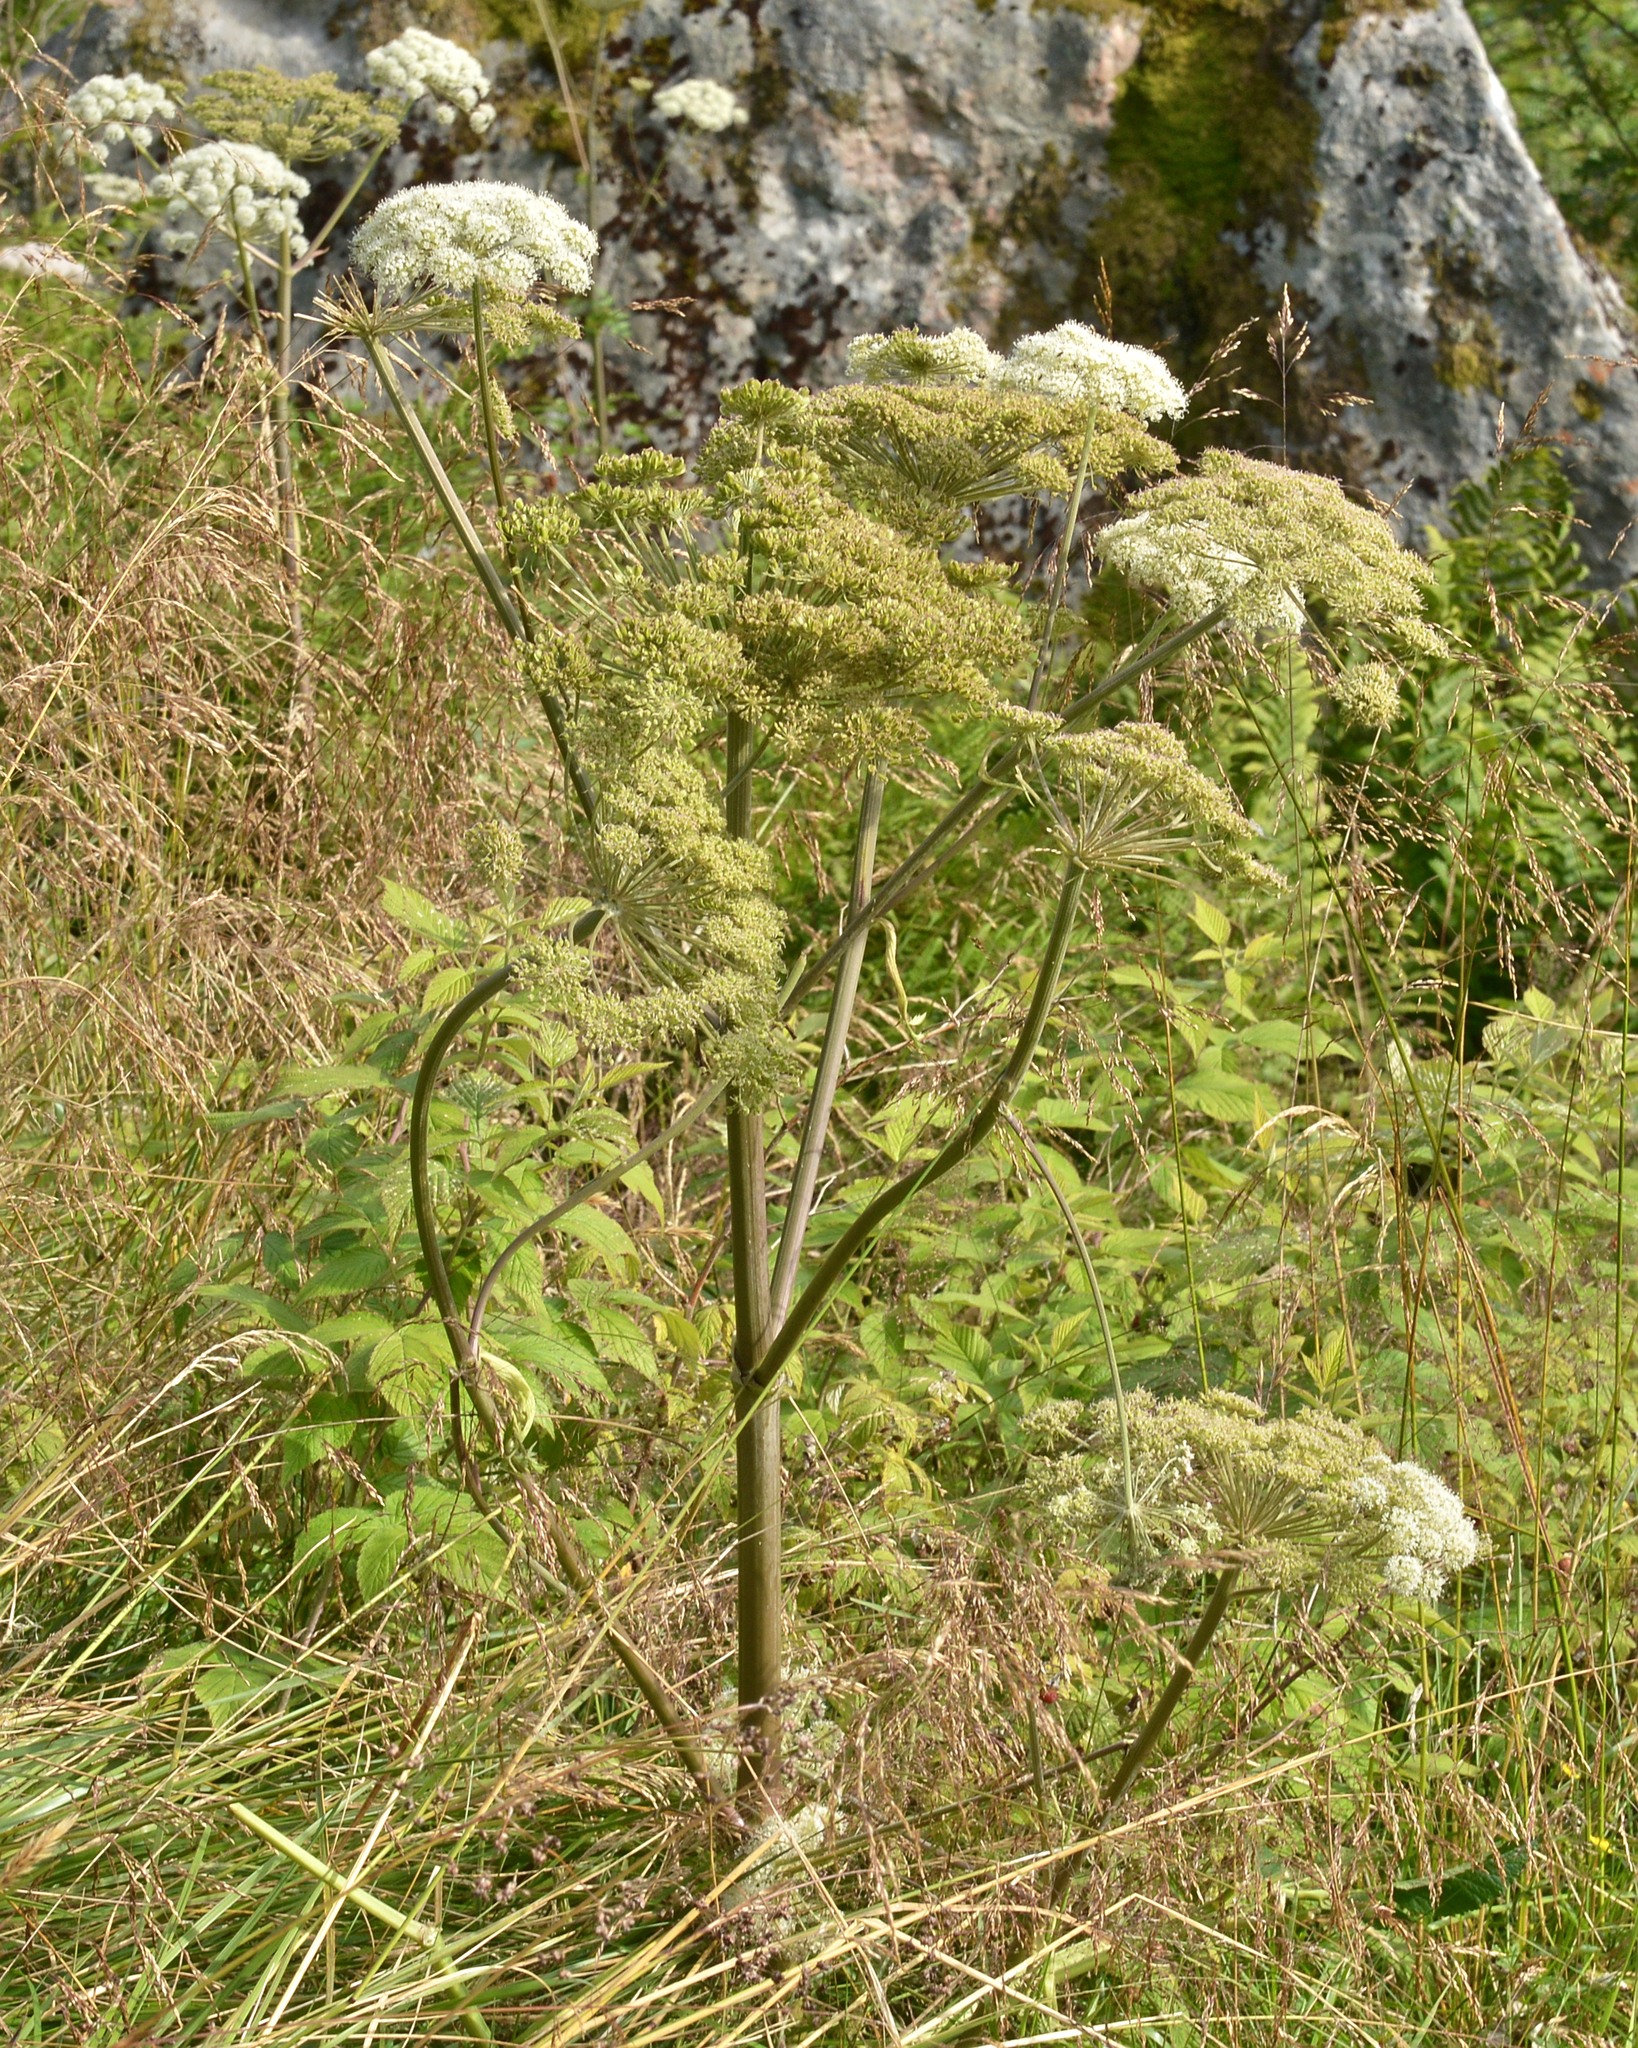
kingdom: Plantae
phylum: Tracheophyta
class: Magnoliopsida
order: Apiales
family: Apiaceae
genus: Angelica
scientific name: Angelica sylvestris
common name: Wild angelica
